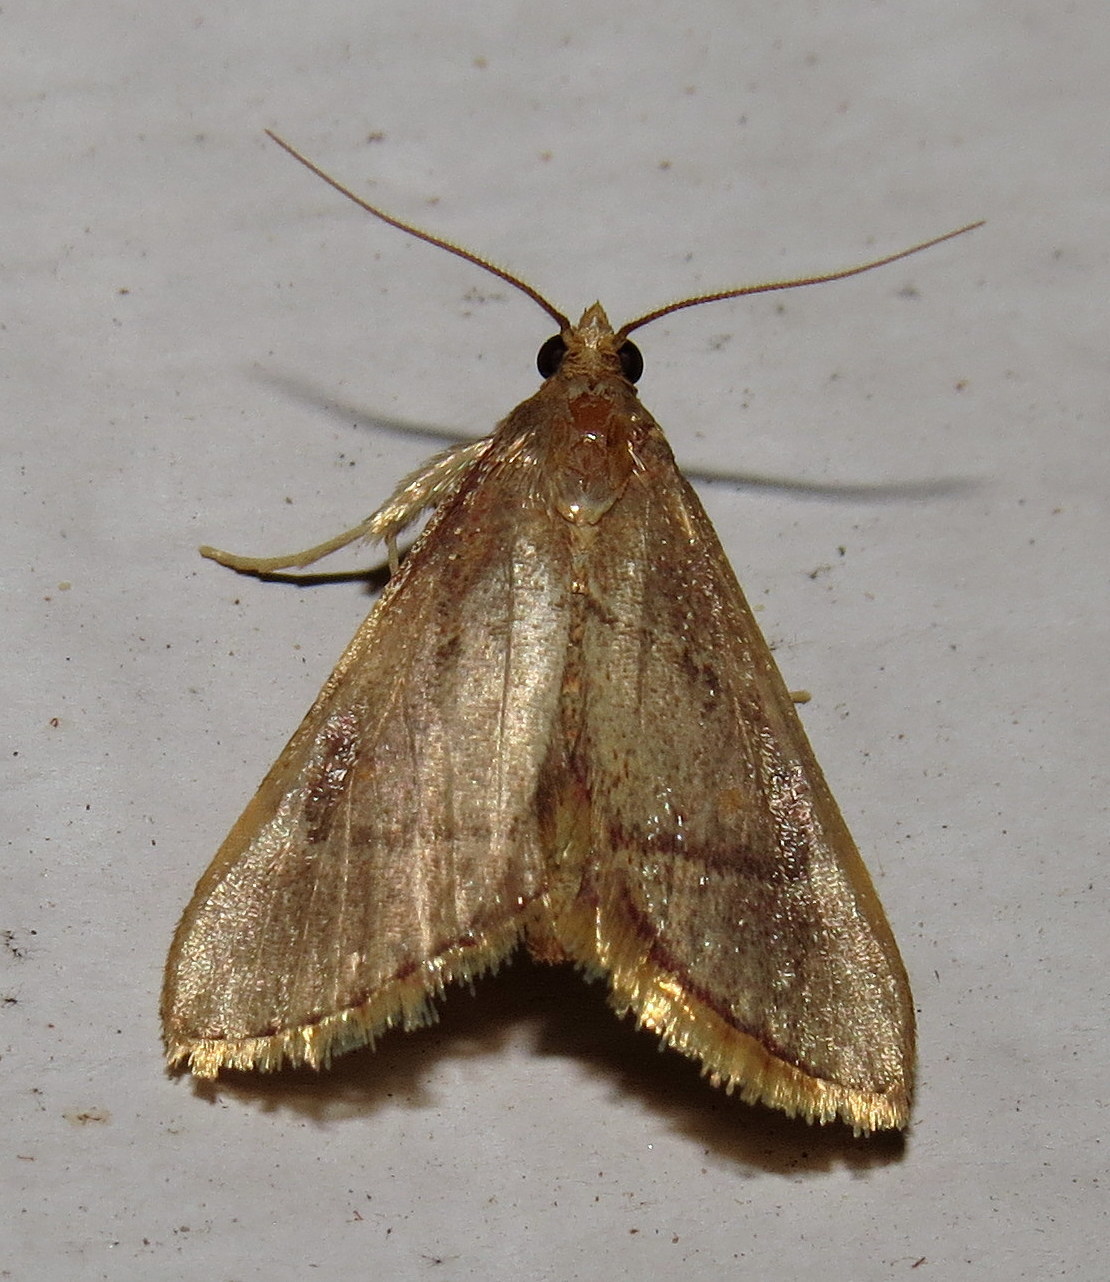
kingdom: Animalia
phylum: Arthropoda
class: Insecta
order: Lepidoptera
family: Pyralidae
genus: Hypsopygia
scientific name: Hypsopygia olinalis
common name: Yellow-fringed dolichomia moth
